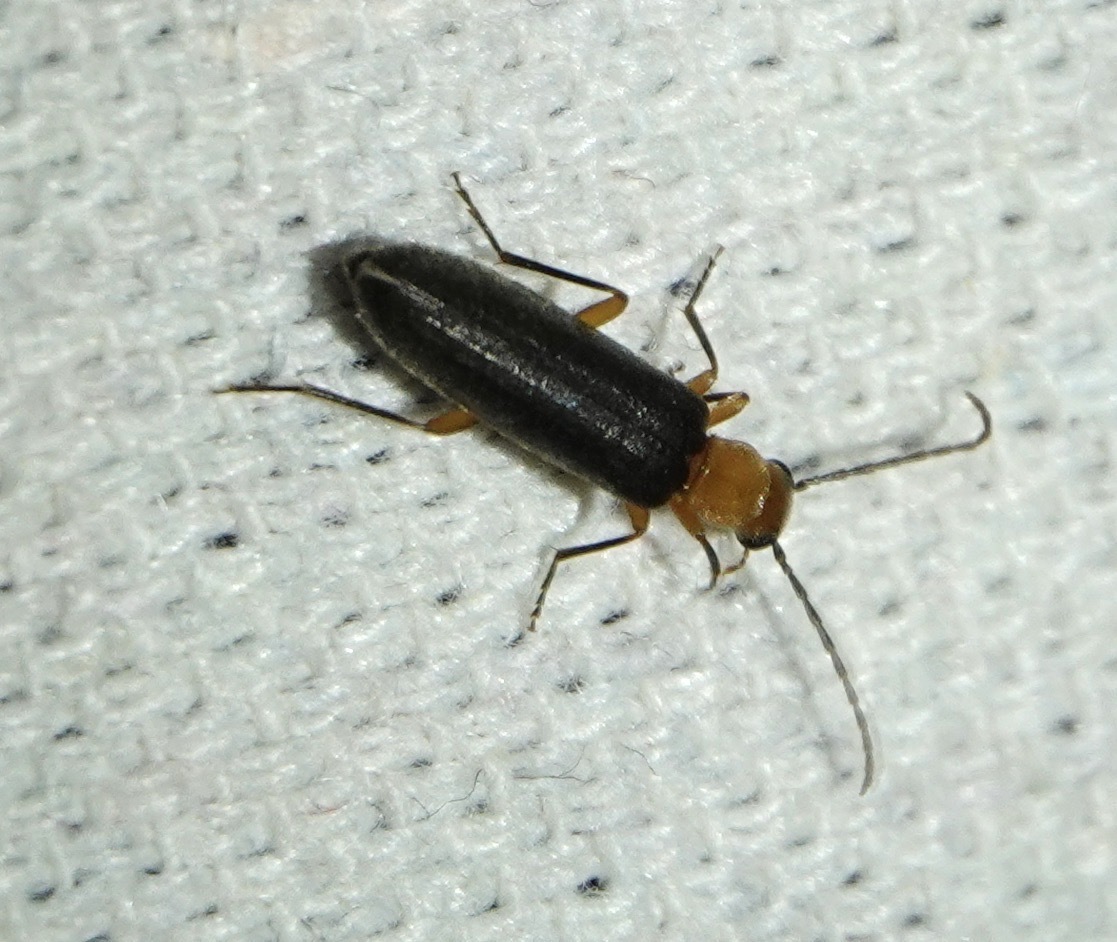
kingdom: Animalia
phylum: Arthropoda
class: Insecta
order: Coleoptera
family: Oedemeridae
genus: Xanthochroina
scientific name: Xanthochroina bicolor
